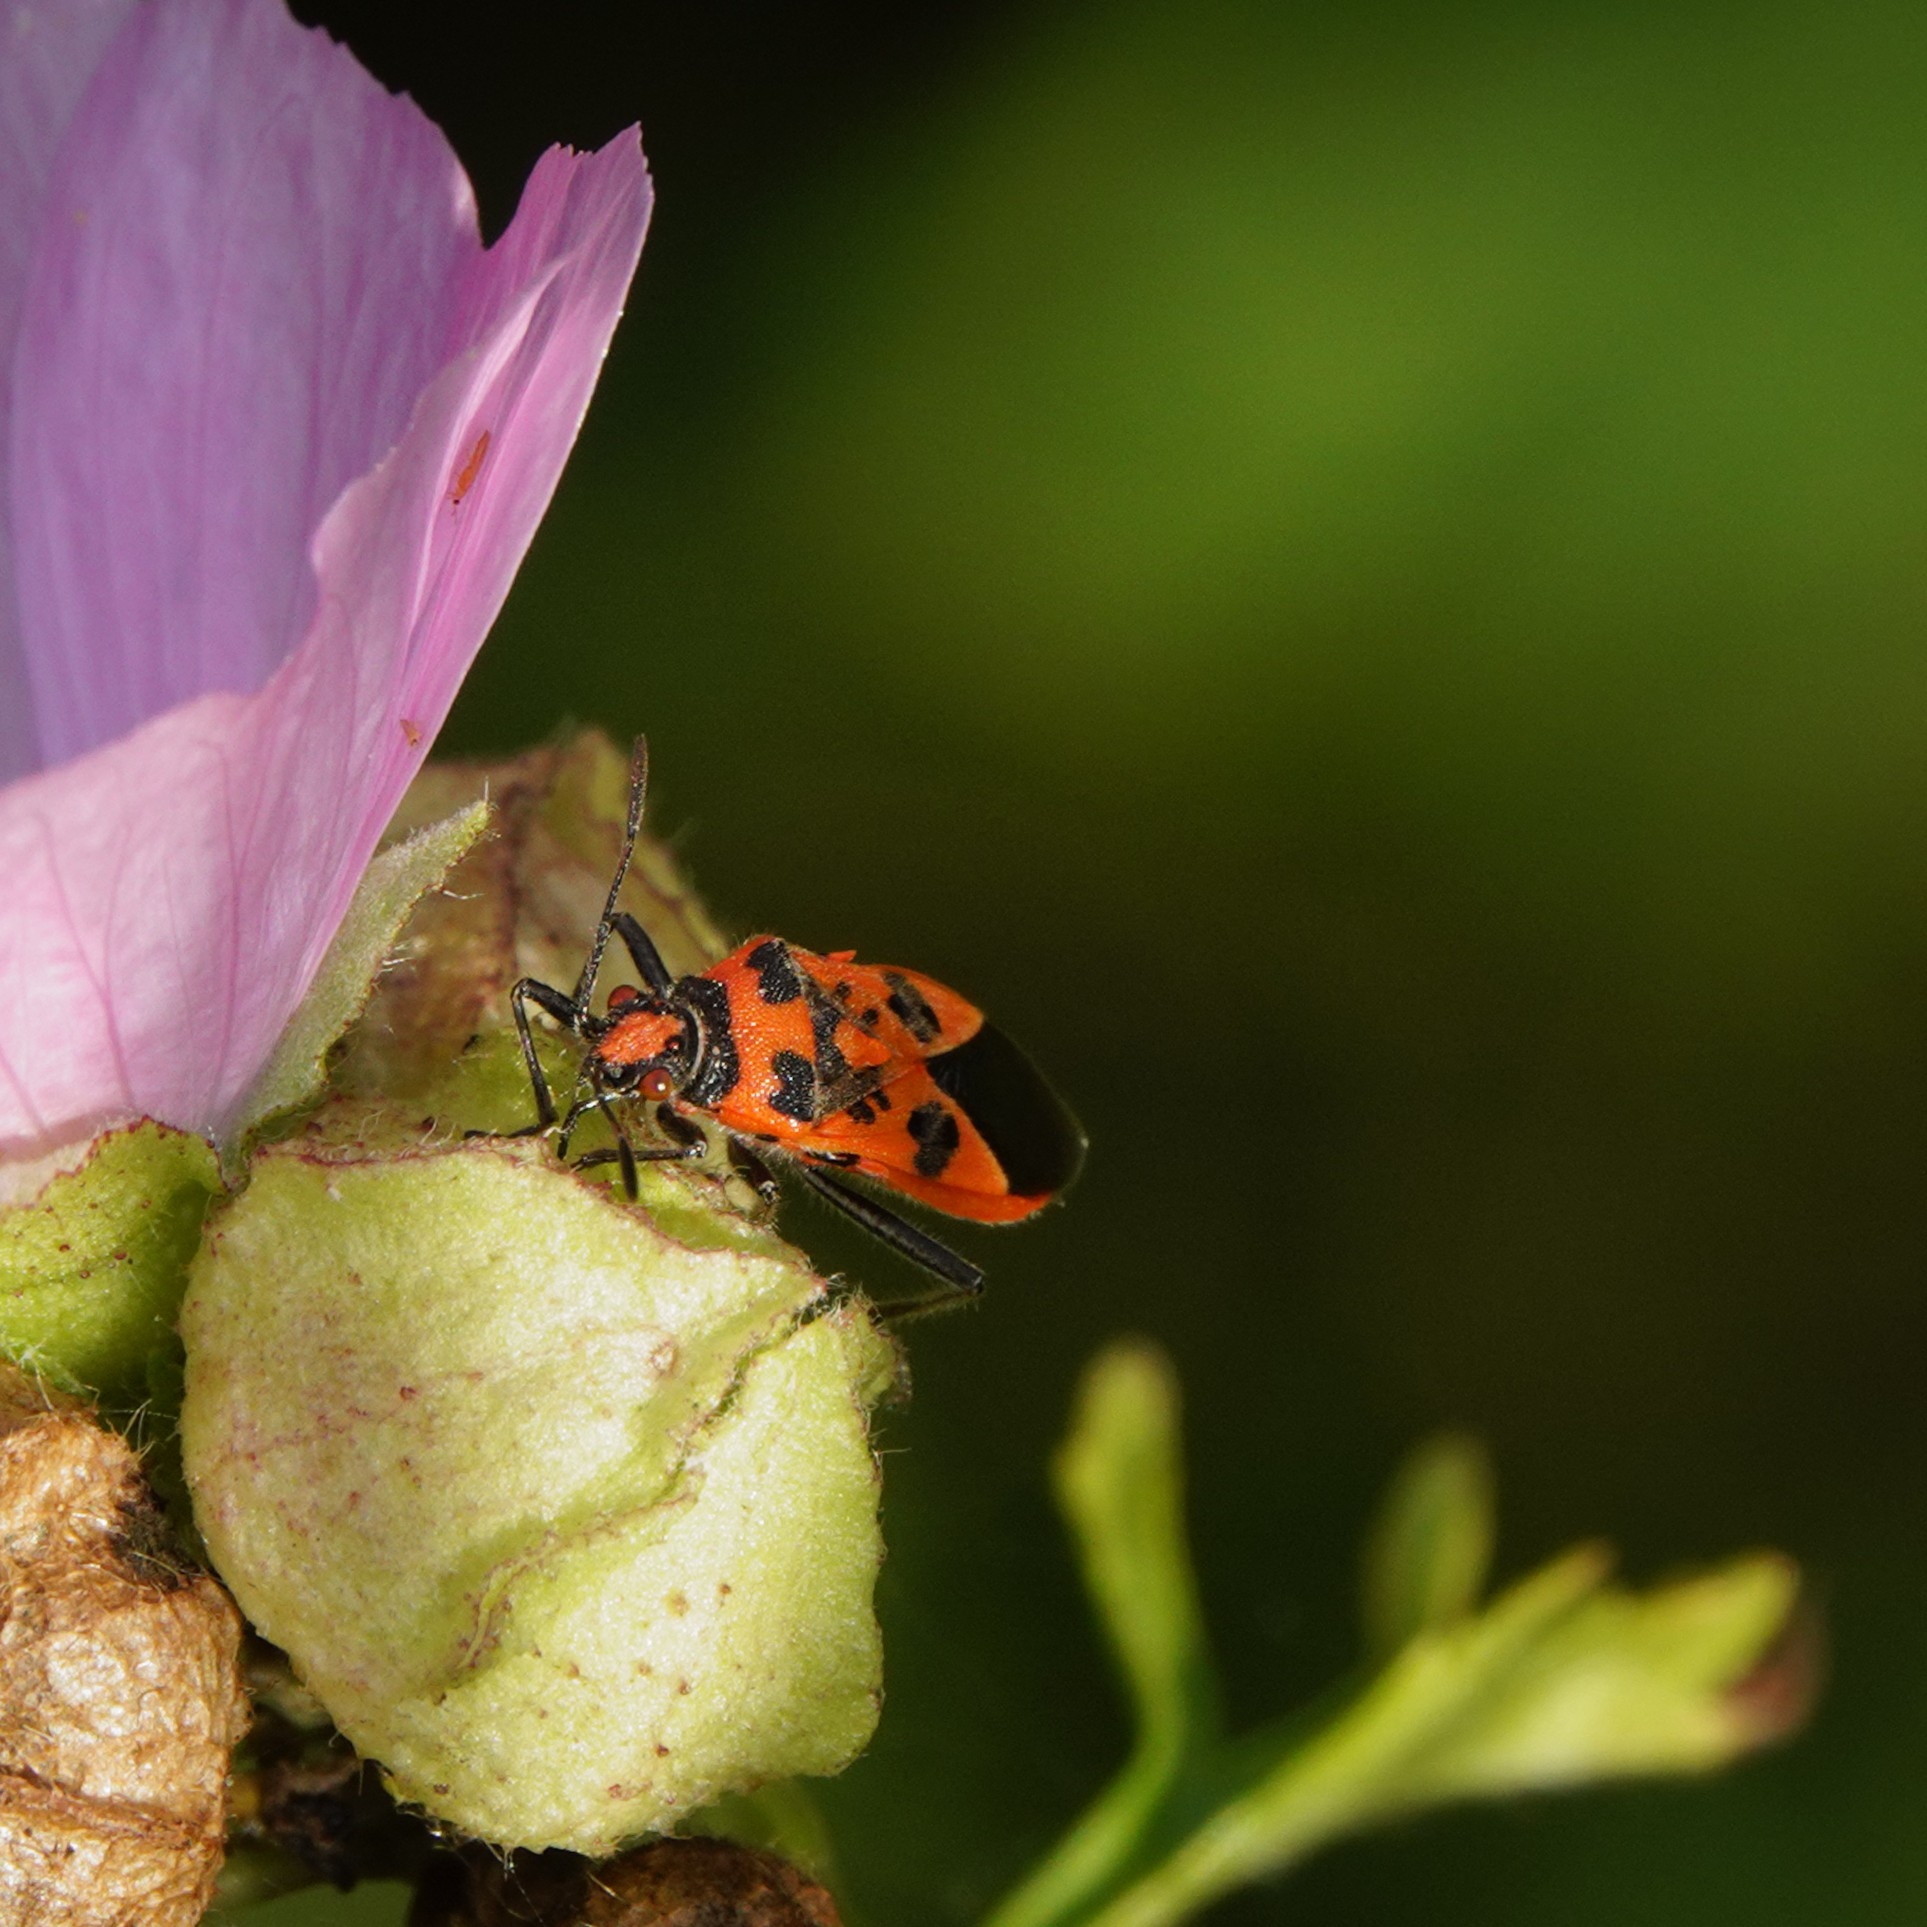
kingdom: Animalia
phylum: Arthropoda
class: Insecta
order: Hemiptera
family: Rhopalidae
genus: Corizus
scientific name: Corizus hyoscyami
